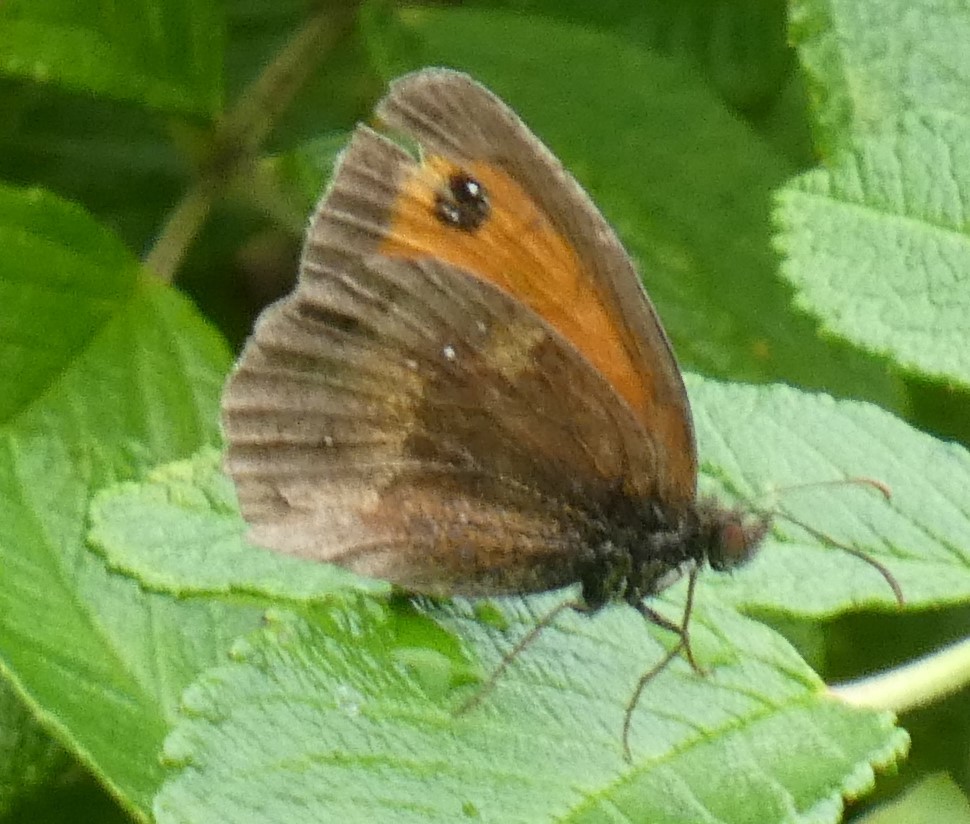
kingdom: Animalia
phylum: Arthropoda
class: Insecta
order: Lepidoptera
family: Nymphalidae
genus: Pyronia
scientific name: Pyronia tithonus
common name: Gatekeeper
